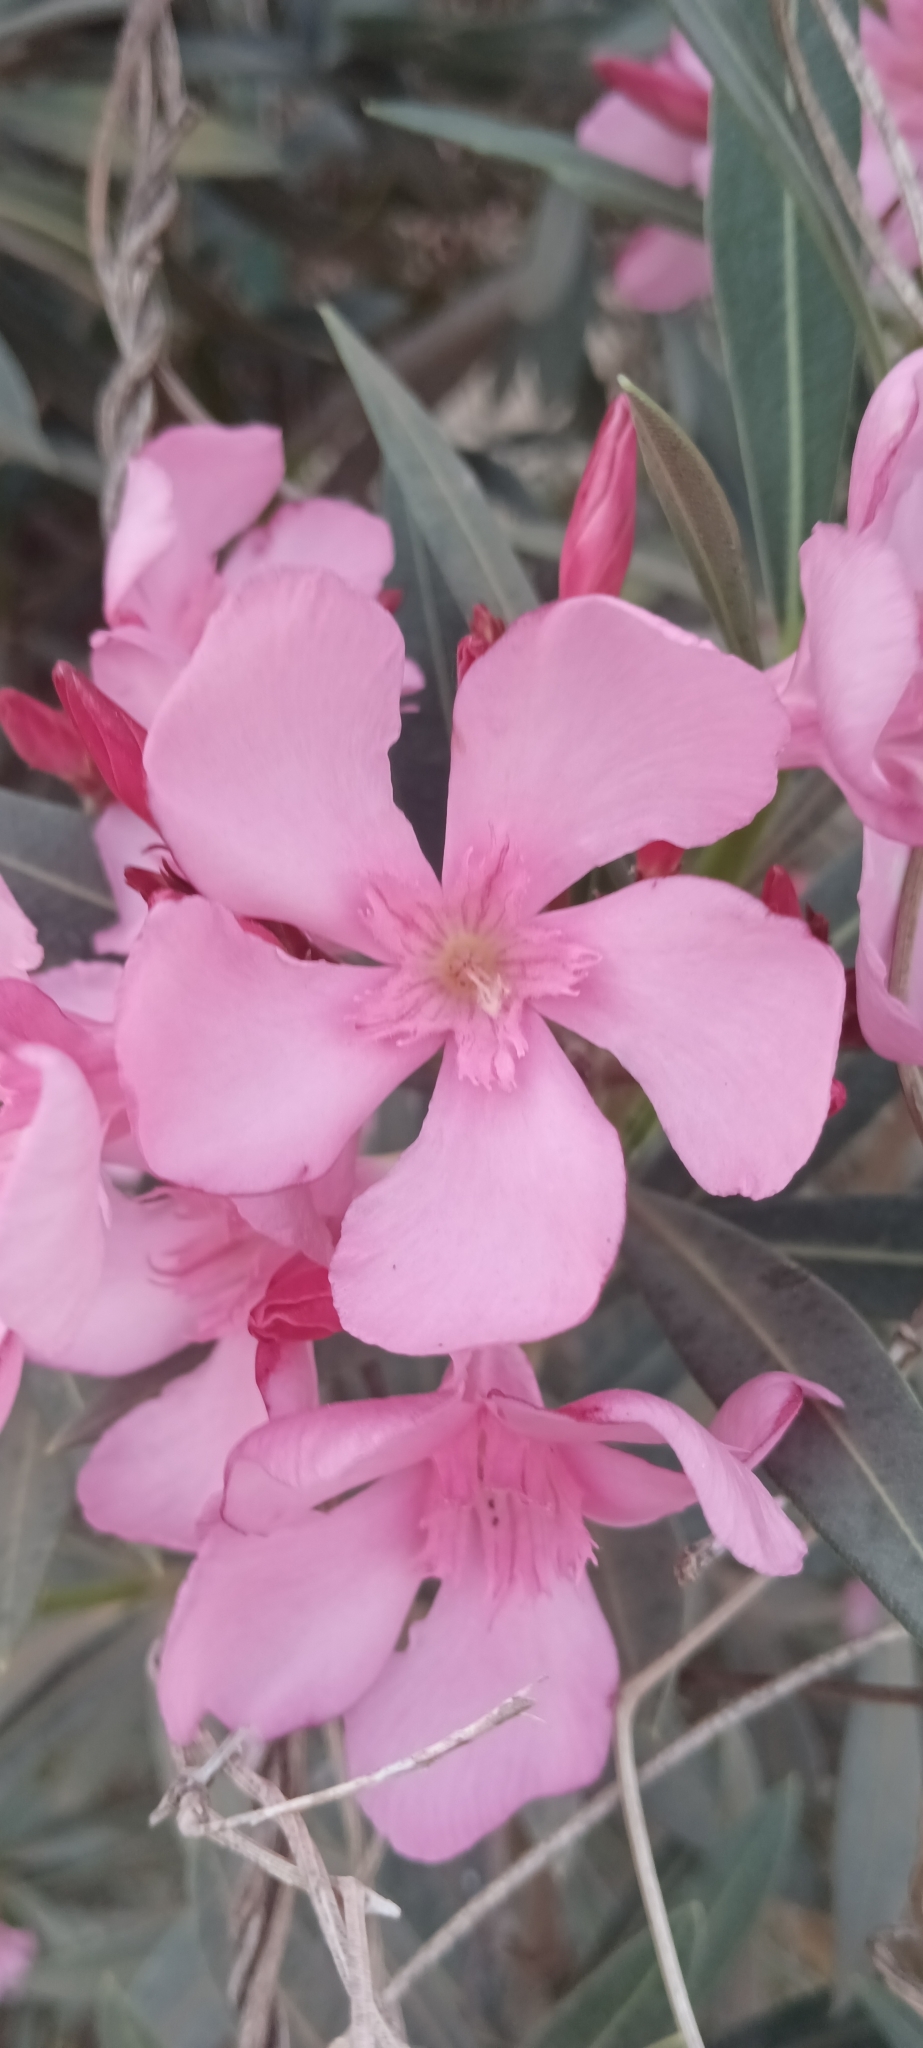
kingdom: Plantae
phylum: Tracheophyta
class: Magnoliopsida
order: Gentianales
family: Apocynaceae
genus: Nerium
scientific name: Nerium oleander
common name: Oleander
